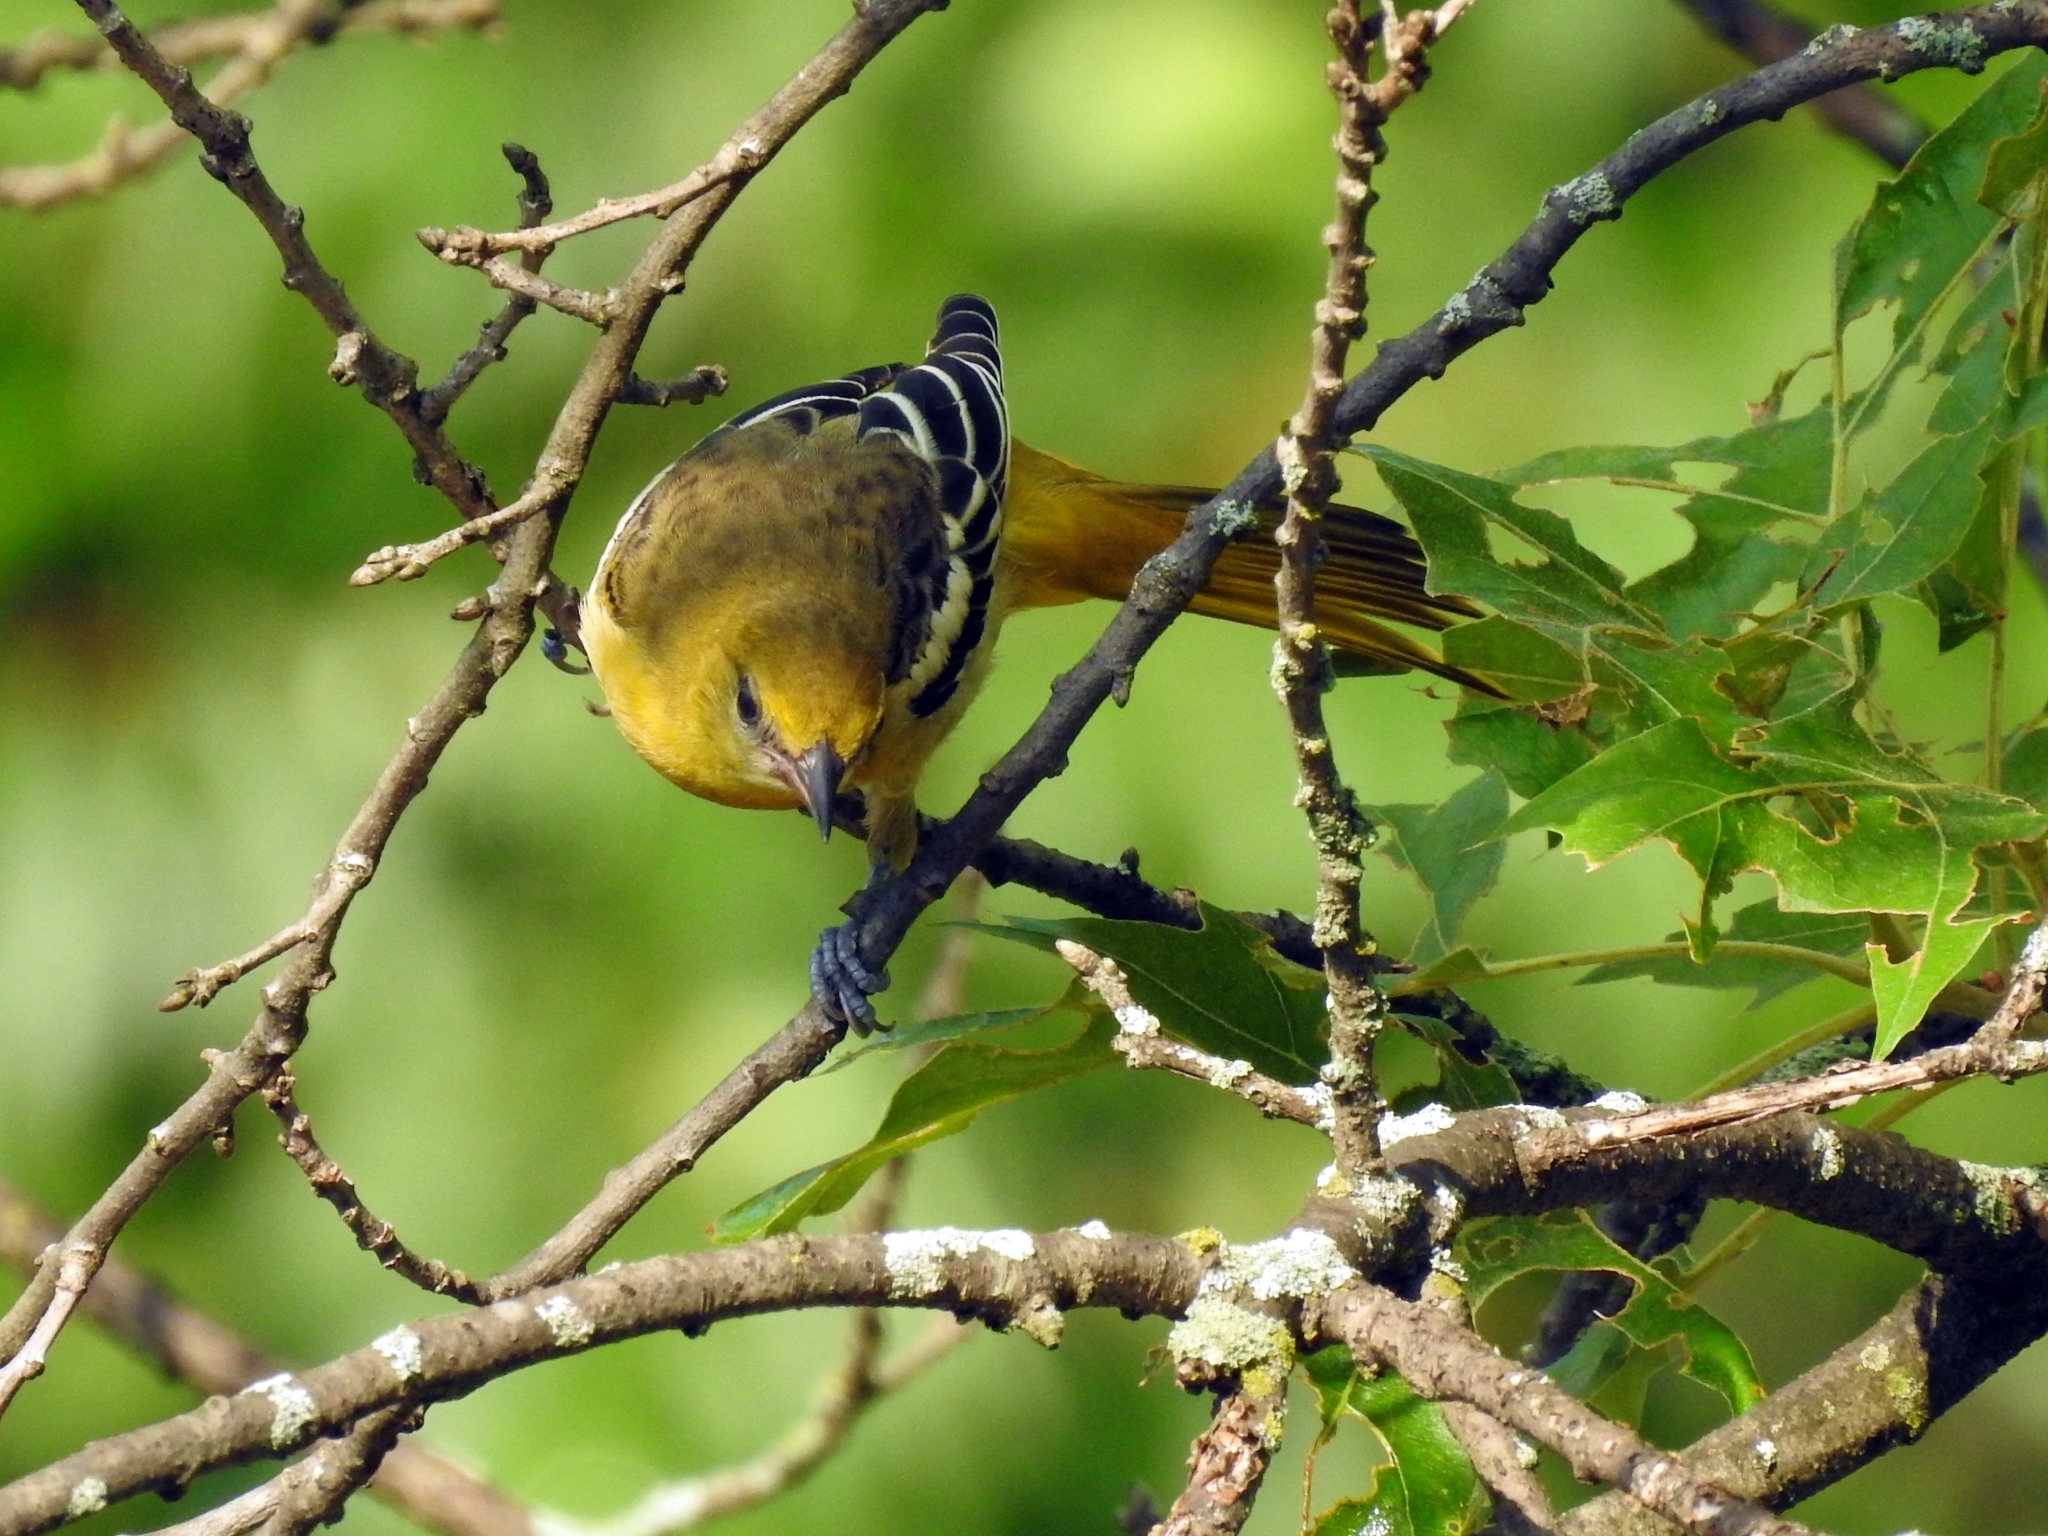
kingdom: Animalia
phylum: Chordata
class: Aves
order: Passeriformes
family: Icteridae
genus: Icterus
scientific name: Icterus galbula
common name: Baltimore oriole
